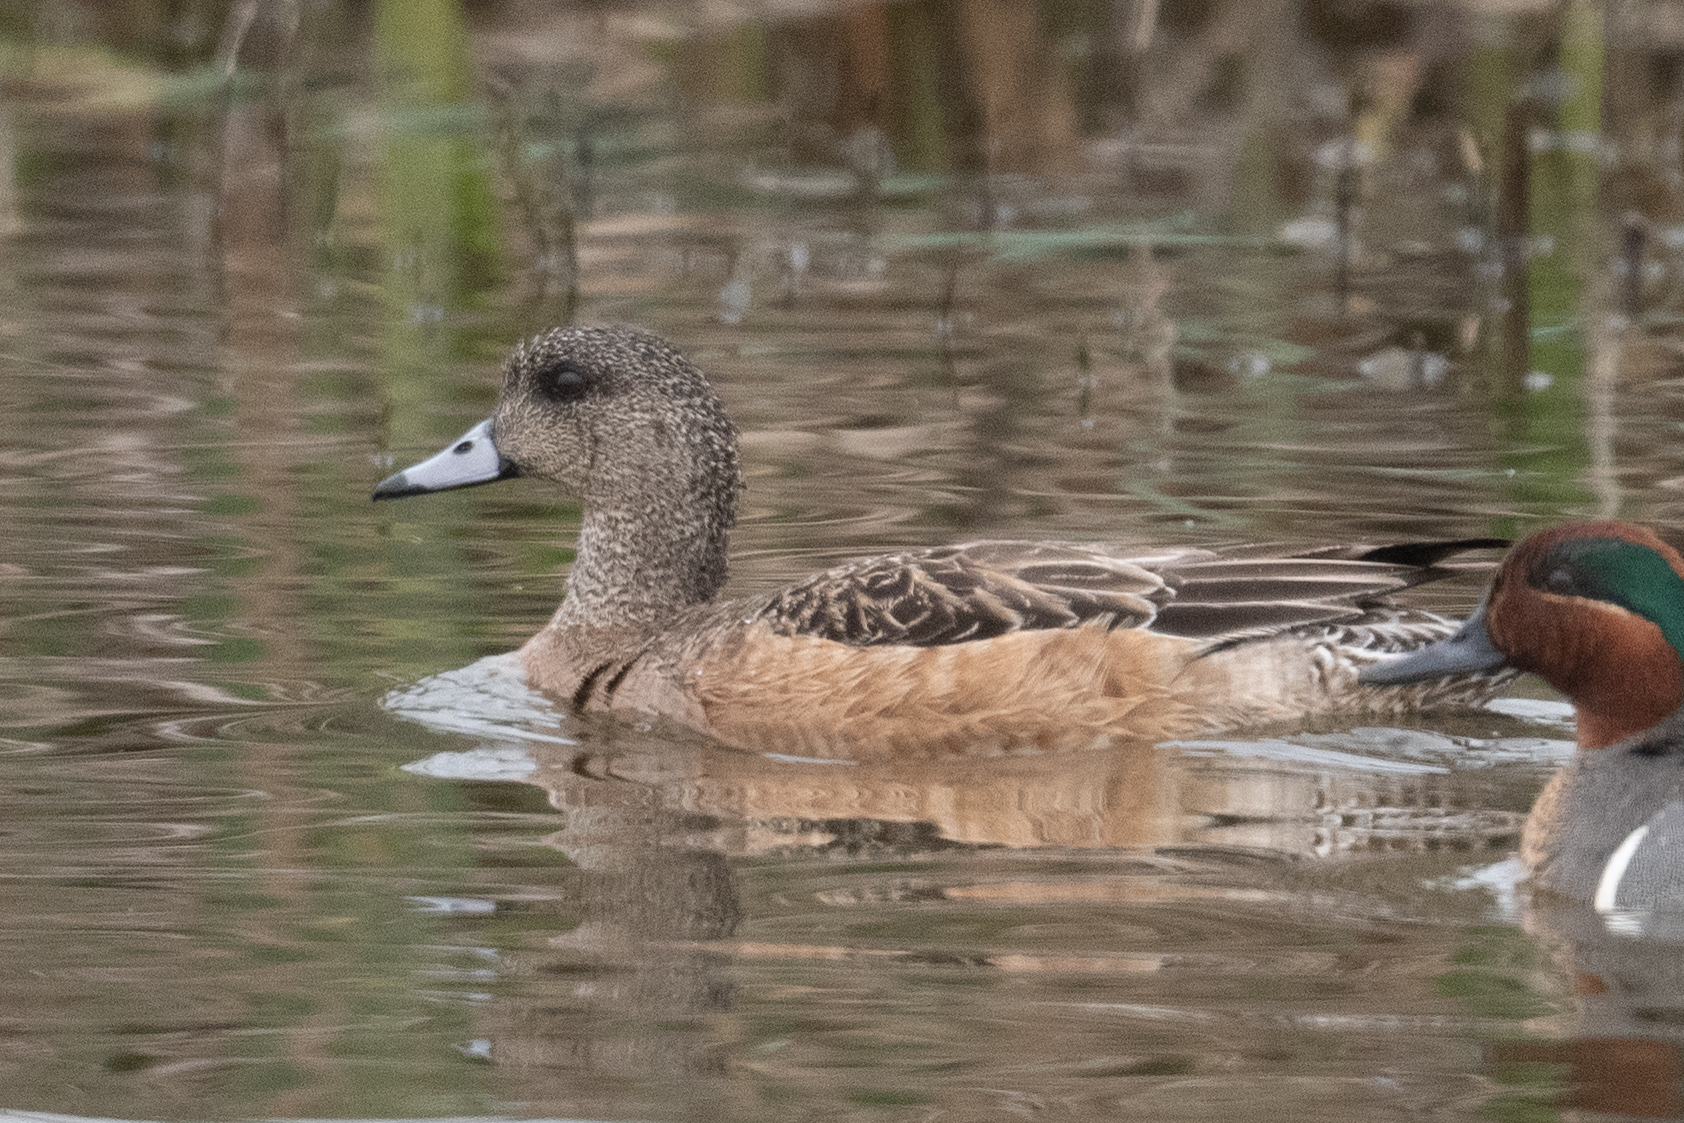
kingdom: Animalia
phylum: Chordata
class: Aves
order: Anseriformes
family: Anatidae
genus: Mareca
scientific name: Mareca americana
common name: American wigeon
